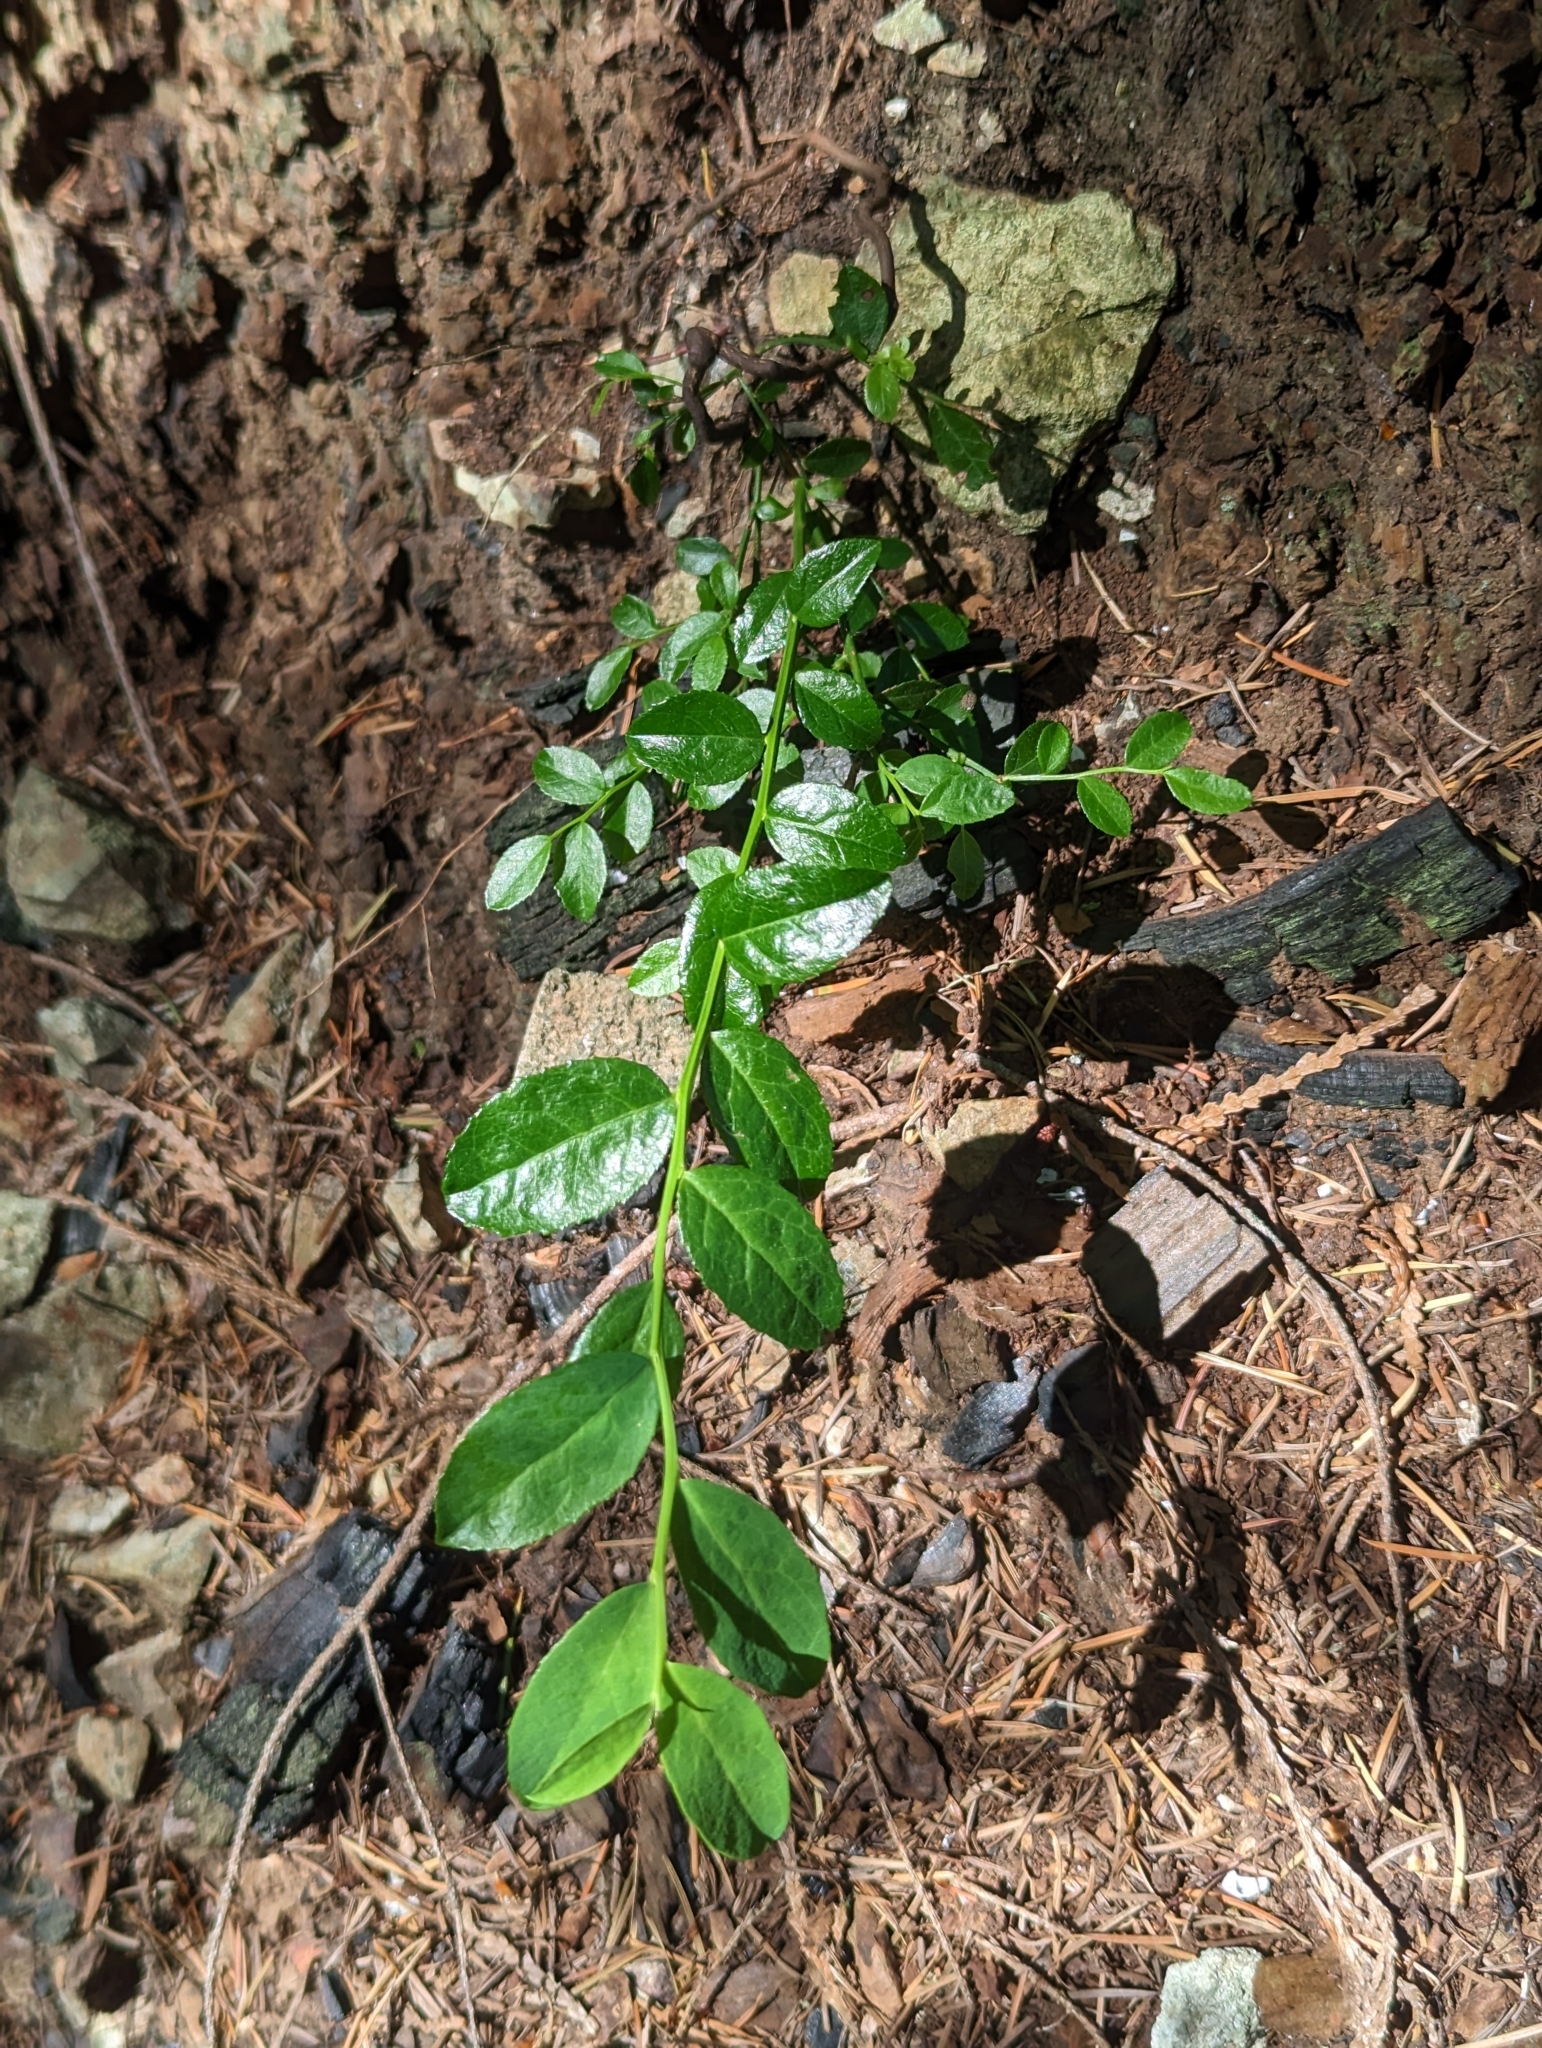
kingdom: Plantae
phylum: Tracheophyta
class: Magnoliopsida
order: Ericales
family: Ericaceae
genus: Vaccinium
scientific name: Vaccinium parvifolium
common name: Red-huckleberry
